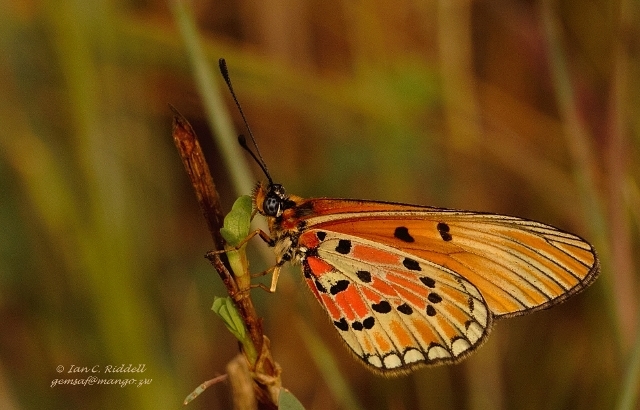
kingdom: Animalia
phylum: Arthropoda
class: Insecta
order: Lepidoptera
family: Nymphalidae
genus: Acraea
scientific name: Acraea Telchinia induna
